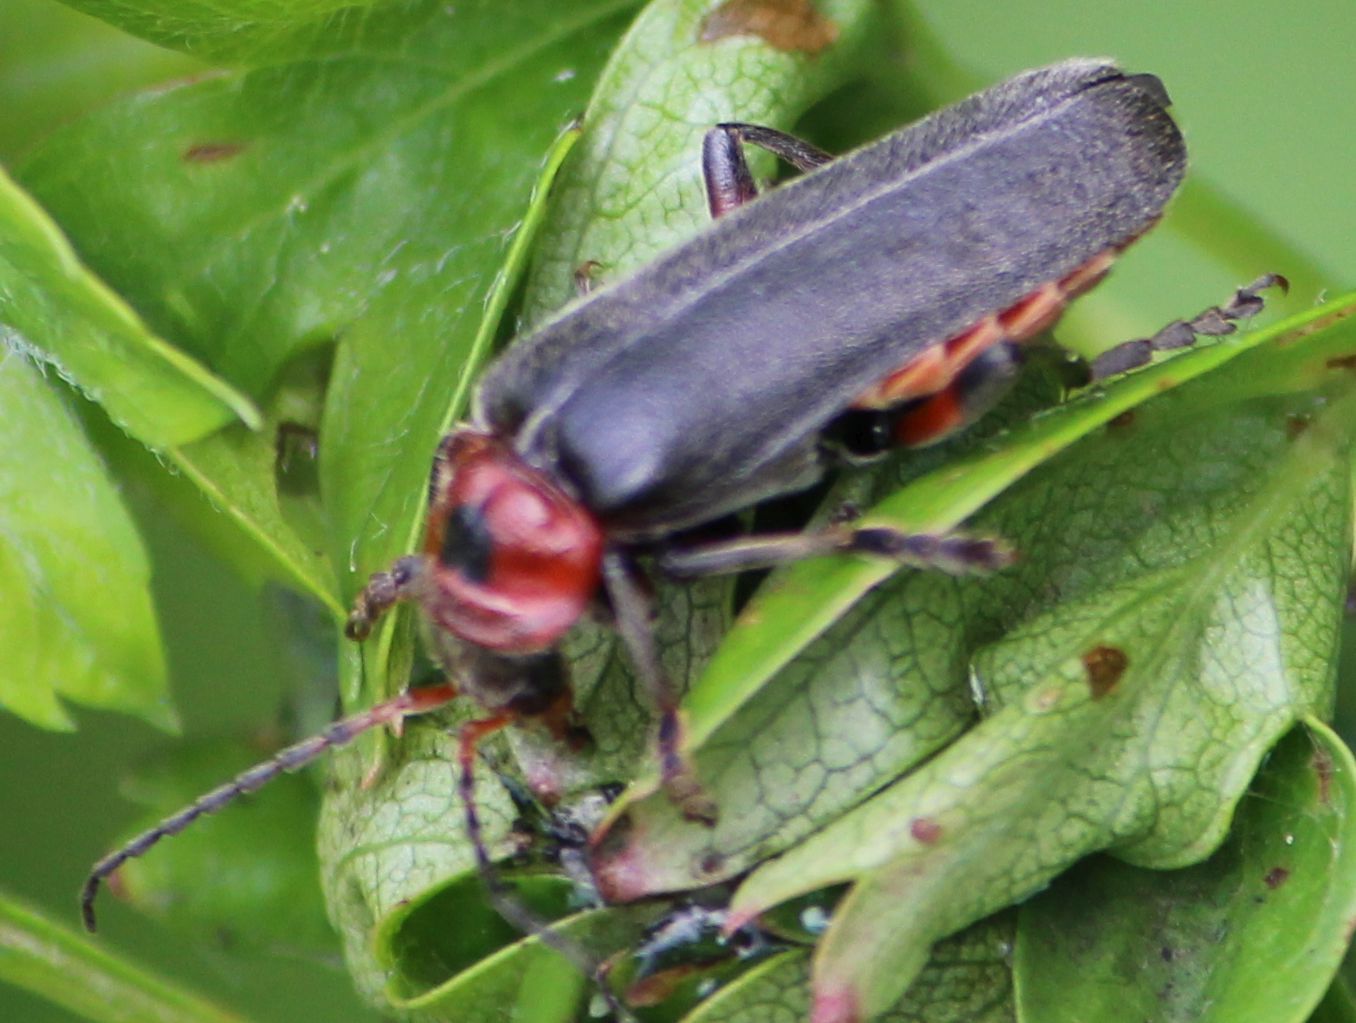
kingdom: Animalia
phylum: Arthropoda
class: Insecta
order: Coleoptera
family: Cantharidae
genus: Cantharis
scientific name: Cantharis rustica
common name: Soldier beetle
